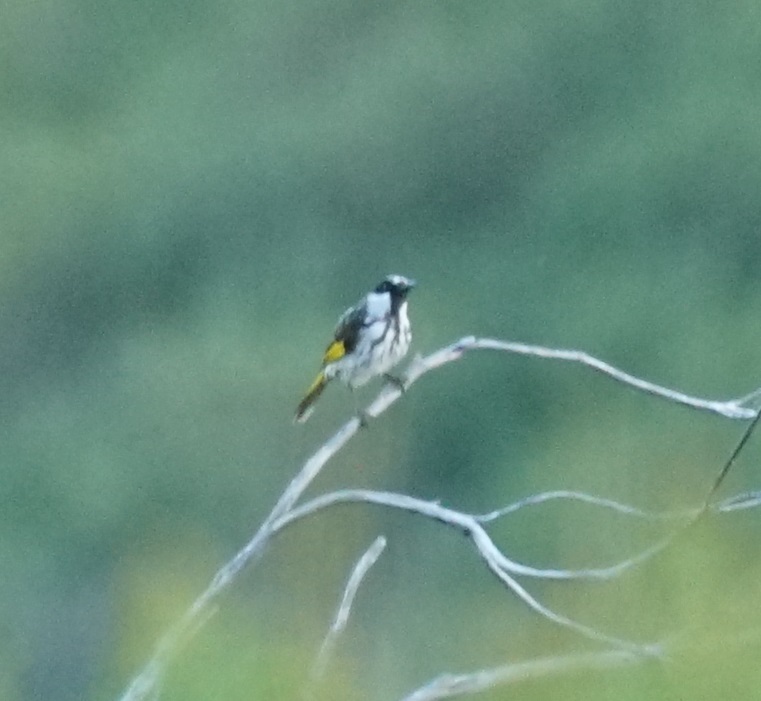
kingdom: Animalia
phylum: Chordata
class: Aves
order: Passeriformes
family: Meliphagidae
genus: Phylidonyris
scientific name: Phylidonyris niger
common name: White-cheeked honeyeater
